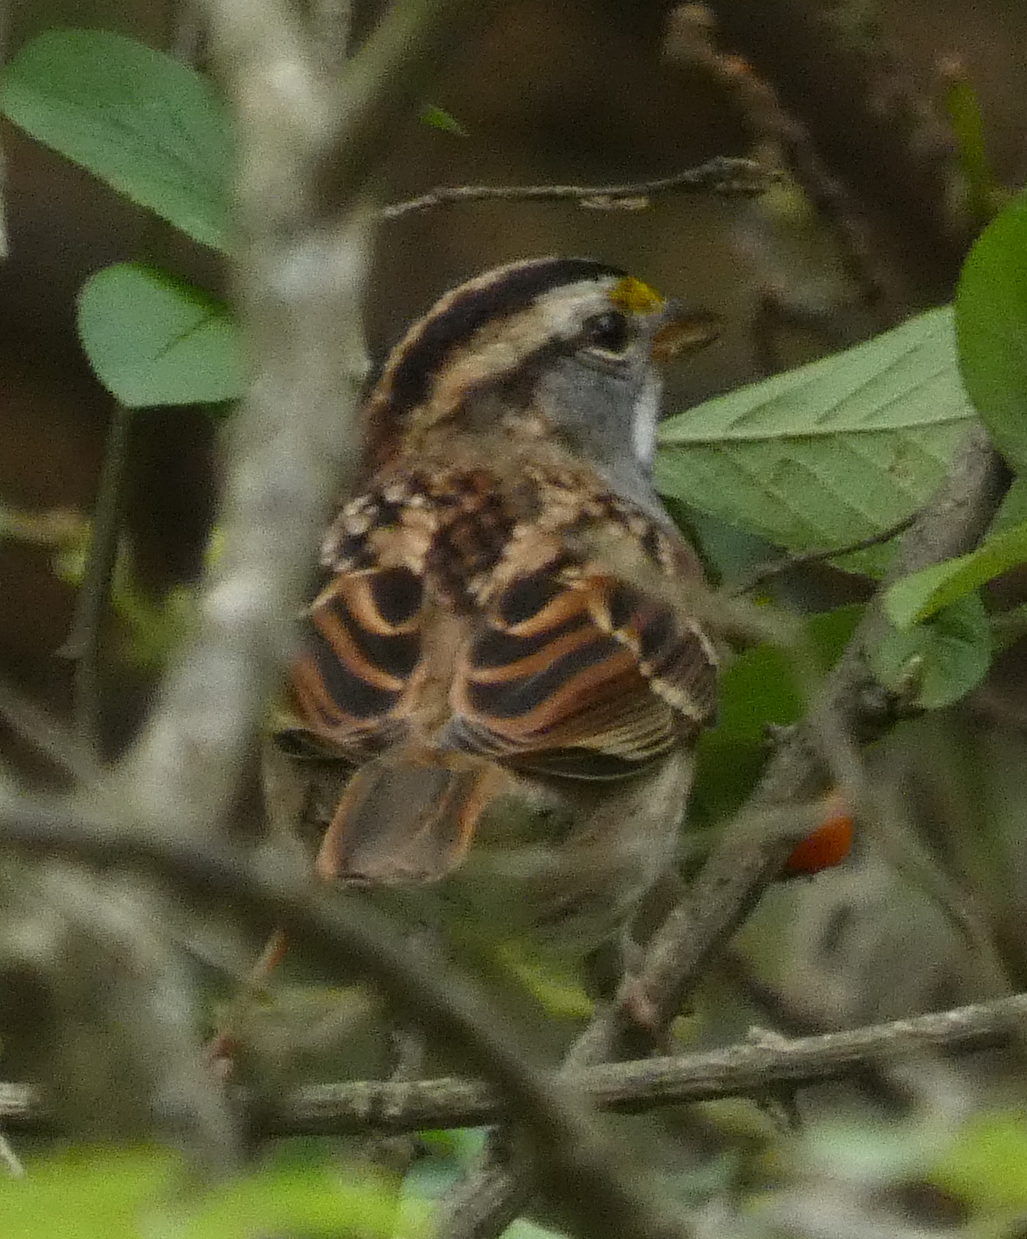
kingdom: Animalia
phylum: Chordata
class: Aves
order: Passeriformes
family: Passerellidae
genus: Zonotrichia
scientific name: Zonotrichia albicollis
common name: White-throated sparrow
